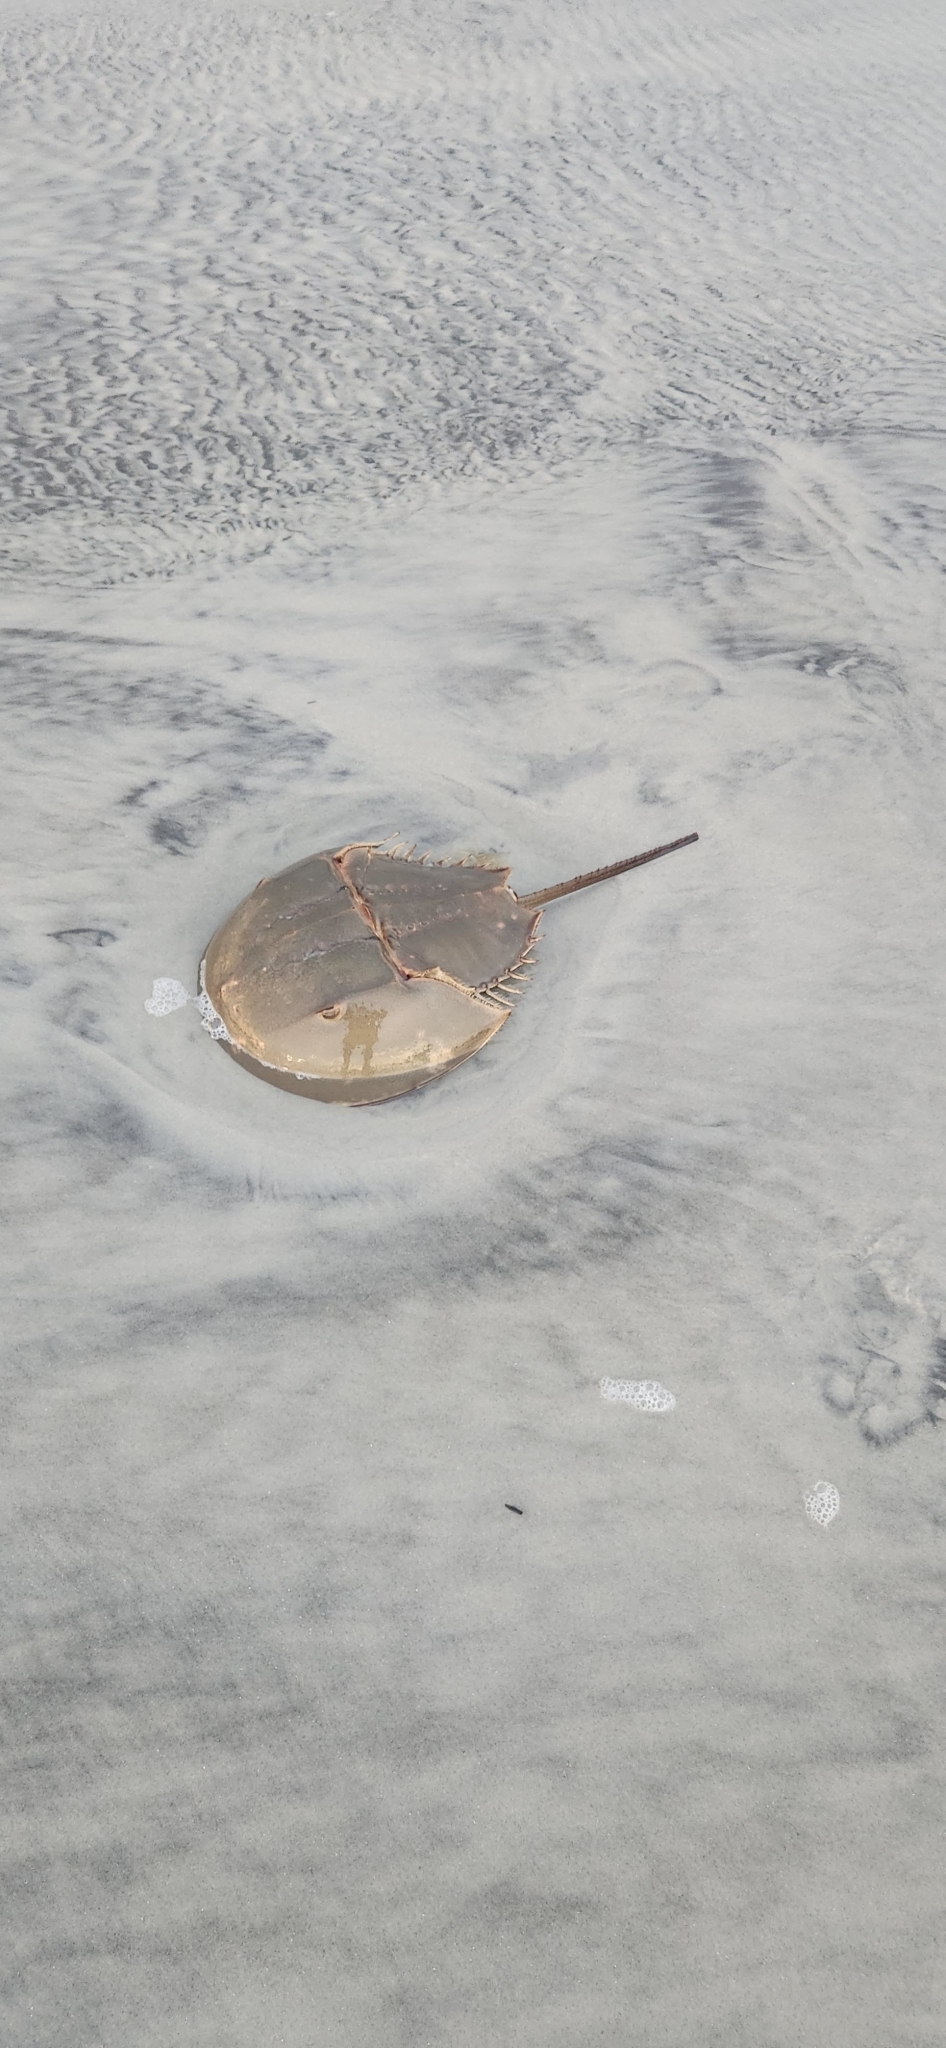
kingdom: Animalia
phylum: Arthropoda
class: Merostomata
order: Xiphosurida
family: Limulidae
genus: Limulus
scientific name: Limulus polyphemus
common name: Horseshoe crab
